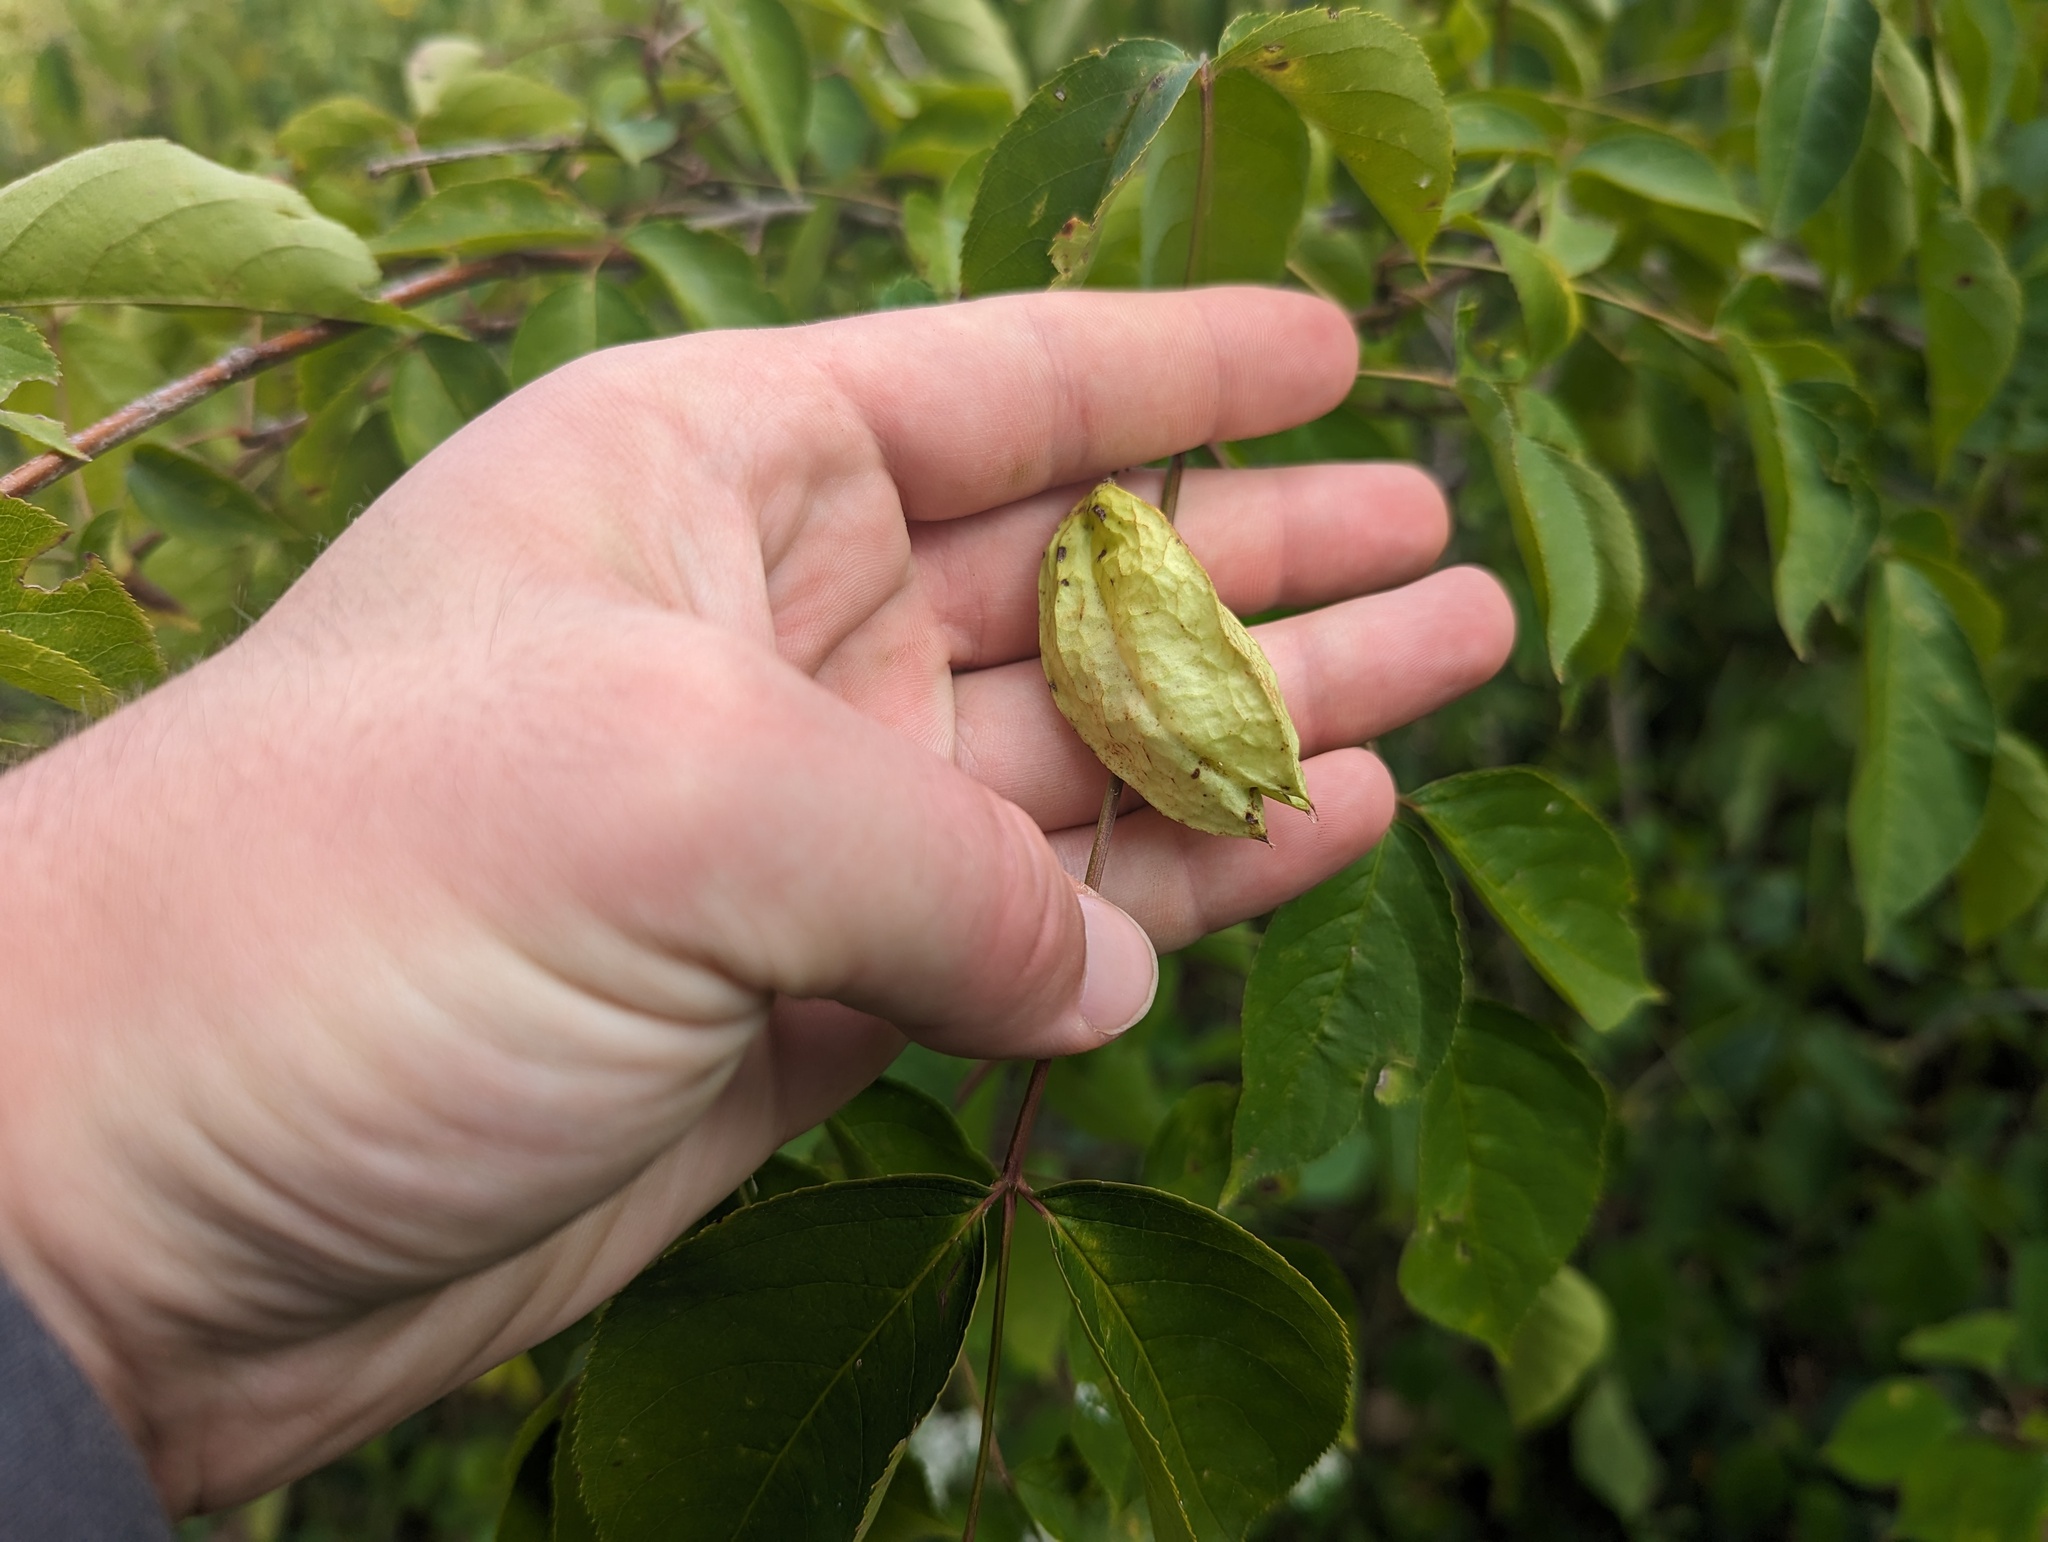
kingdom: Plantae
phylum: Tracheophyta
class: Magnoliopsida
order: Crossosomatales
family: Staphyleaceae
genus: Staphylea
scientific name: Staphylea trifolia
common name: American bladdernut
